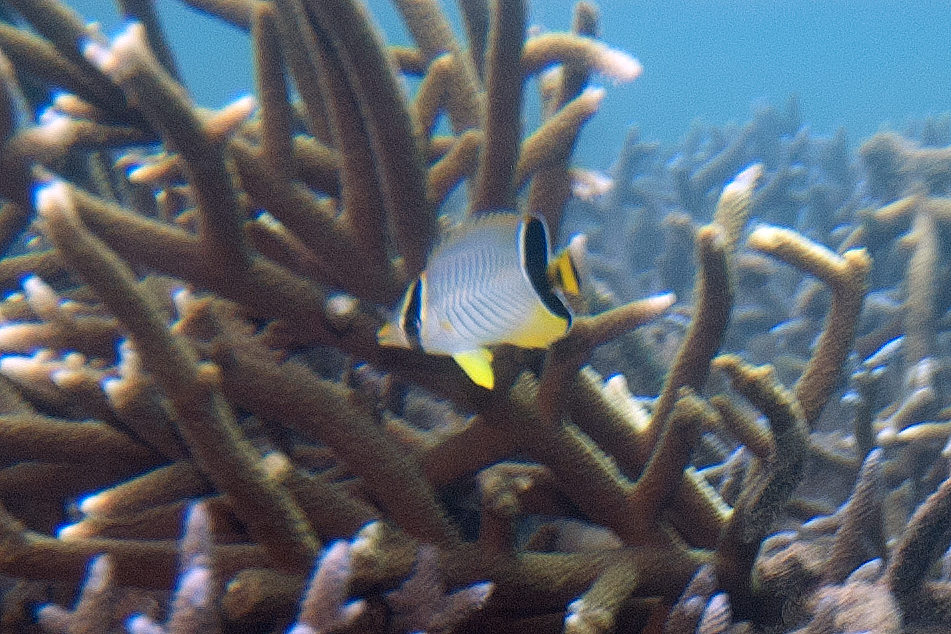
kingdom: Animalia
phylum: Chordata
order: Perciformes
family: Chaetodontidae
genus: Chaetodon
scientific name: Chaetodon trifascialis
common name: Chevroned butterflyfish
